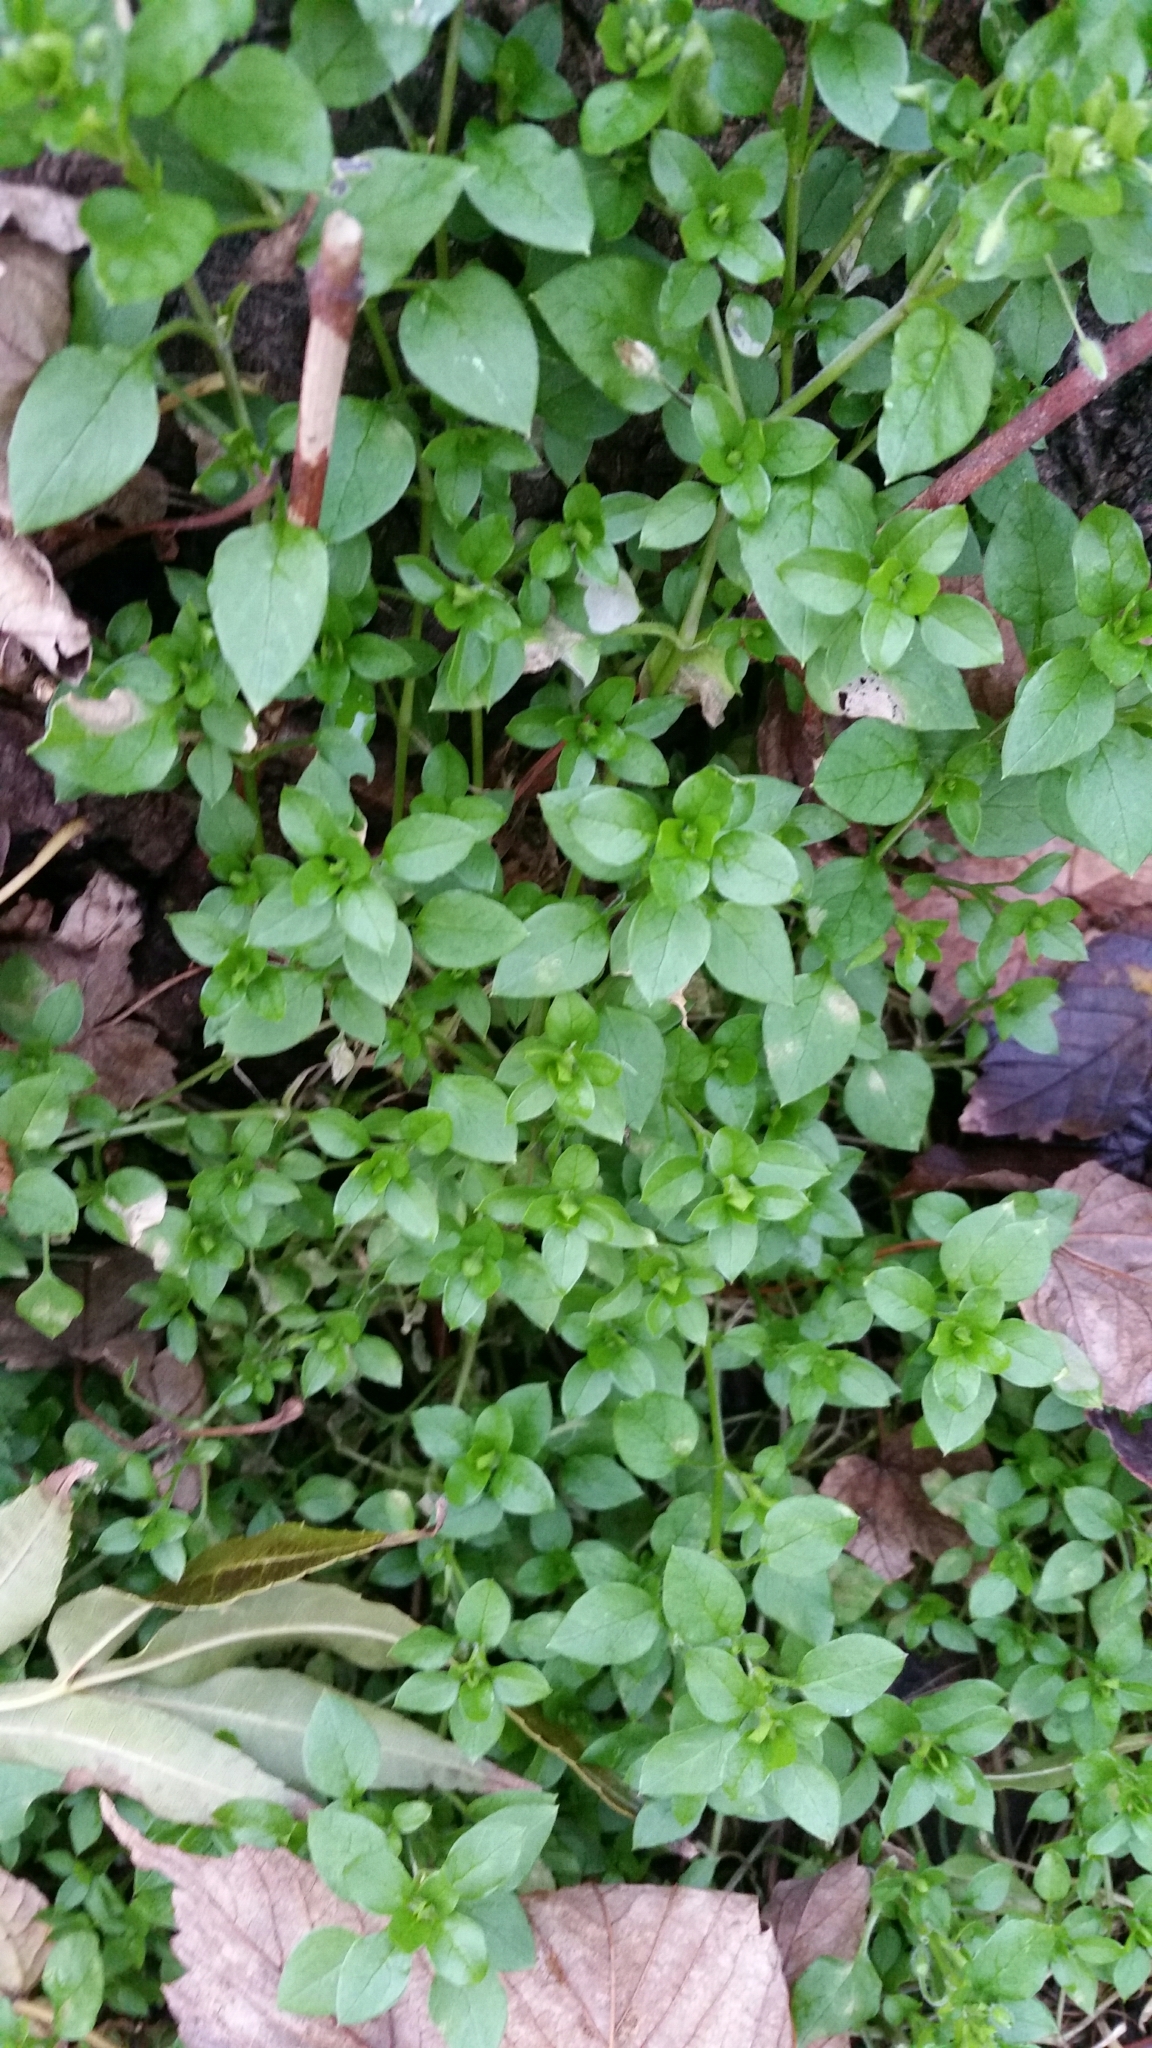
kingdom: Plantae
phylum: Tracheophyta
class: Magnoliopsida
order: Caryophyllales
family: Caryophyllaceae
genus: Stellaria
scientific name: Stellaria media
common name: Common chickweed
